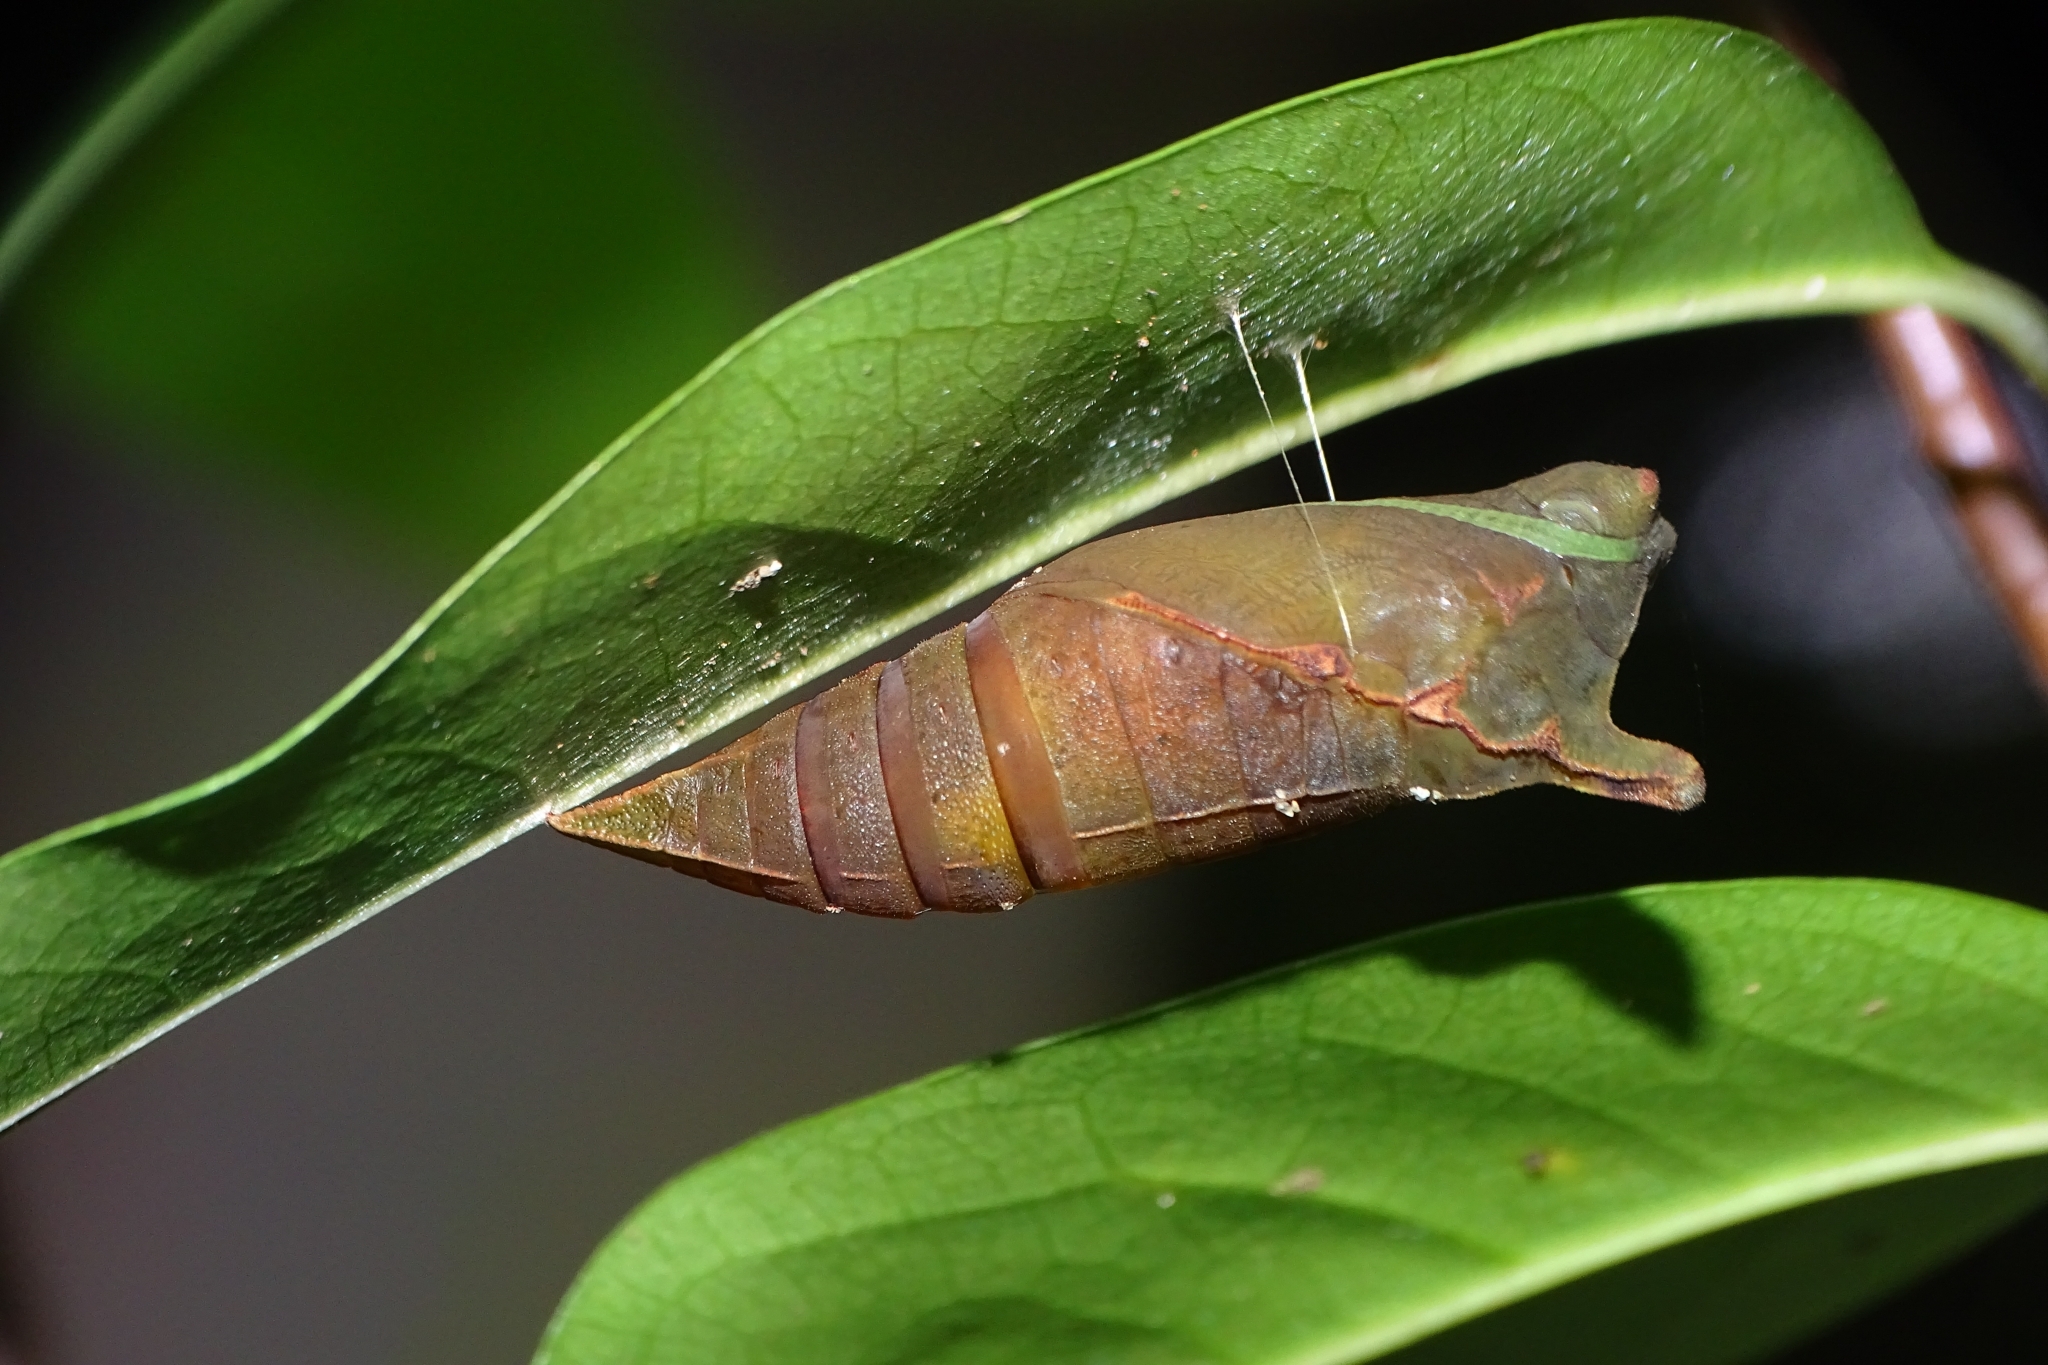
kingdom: Animalia
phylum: Arthropoda
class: Insecta
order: Lepidoptera
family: Papilionidae
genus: Graphium
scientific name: Graphium agamemnon
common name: Tailed jay
